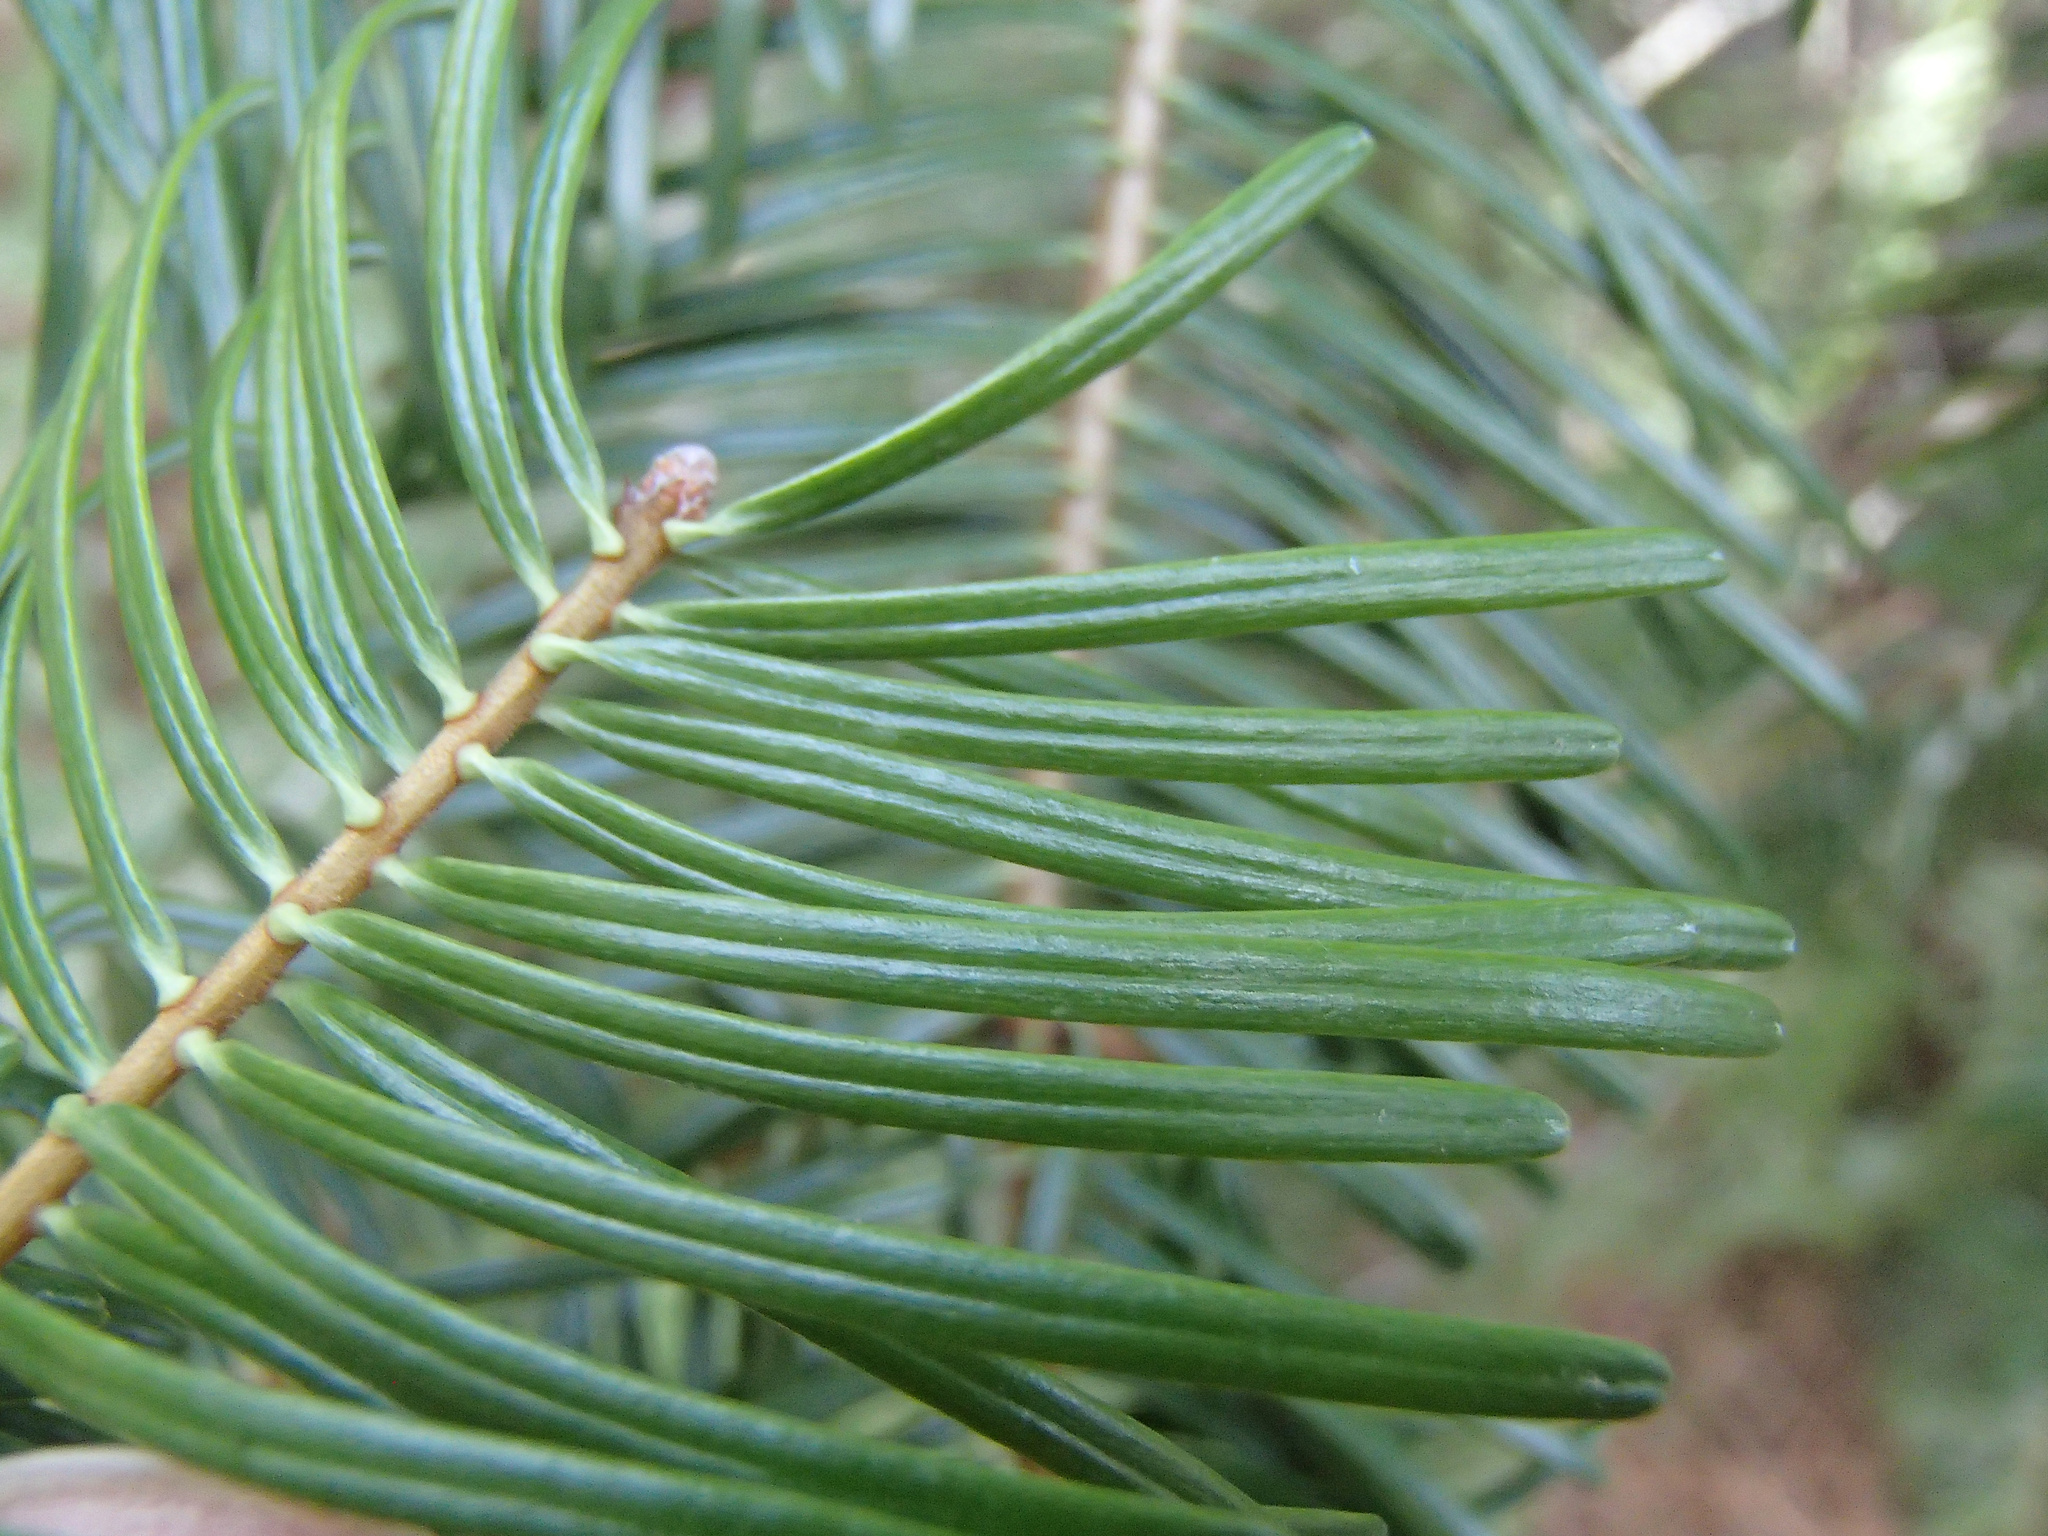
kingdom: Plantae
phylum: Tracheophyta
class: Pinopsida
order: Pinales
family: Pinaceae
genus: Abies
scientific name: Abies grandis
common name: Giant fir
